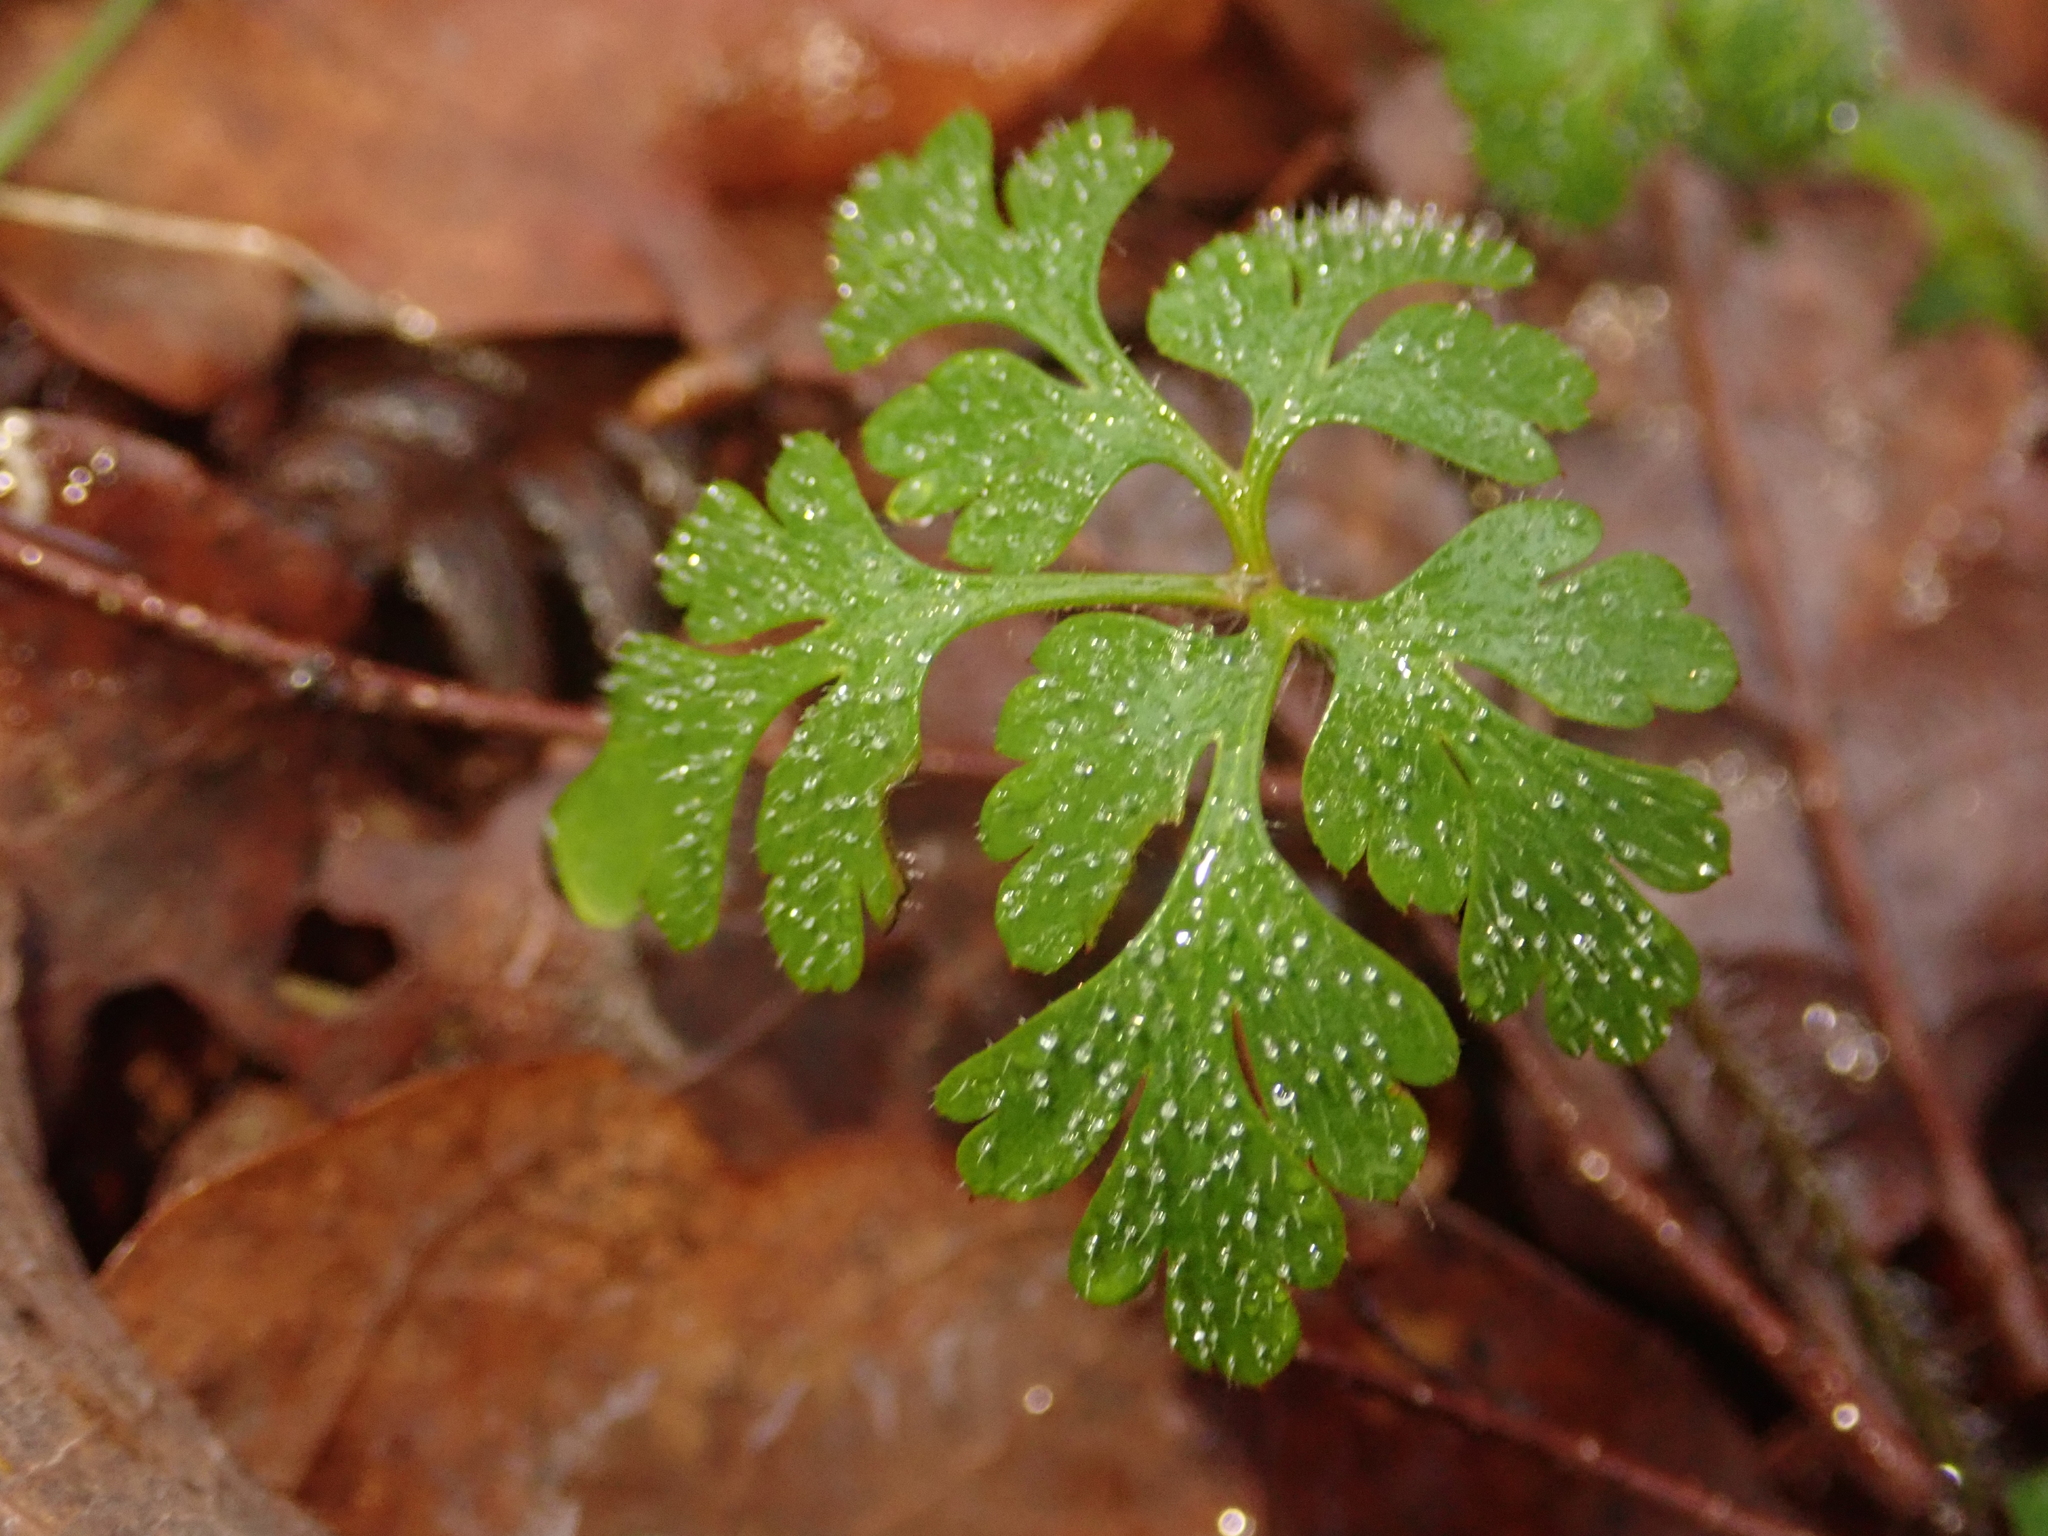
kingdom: Plantae
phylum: Tracheophyta
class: Magnoliopsida
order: Geraniales
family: Geraniaceae
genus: Geranium
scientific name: Geranium robertianum
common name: Herb-robert
